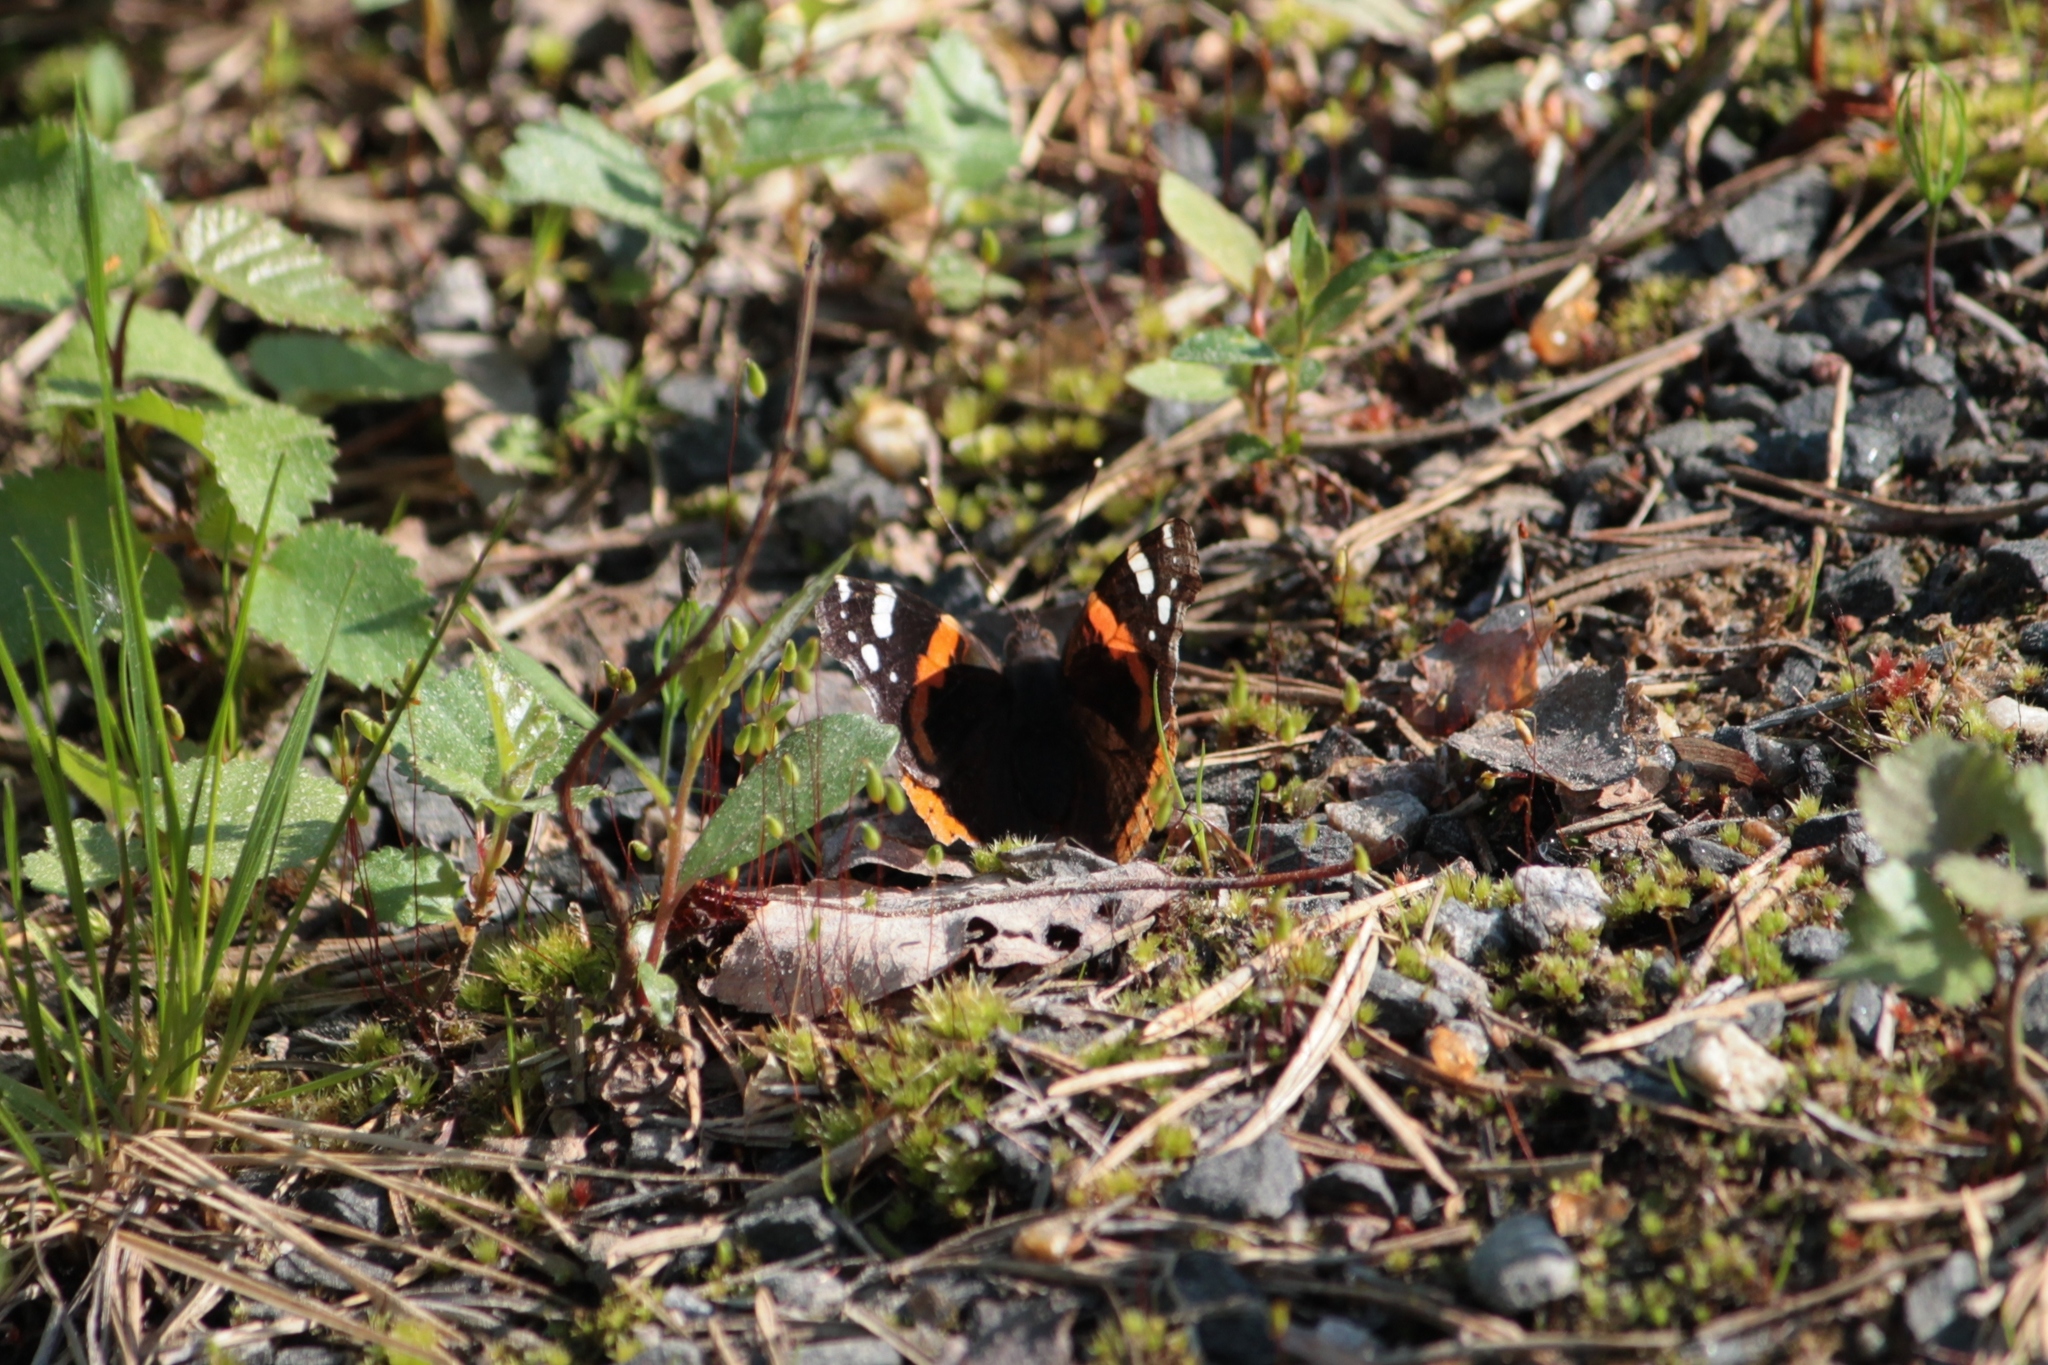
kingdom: Animalia
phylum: Arthropoda
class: Insecta
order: Lepidoptera
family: Nymphalidae
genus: Vanessa
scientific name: Vanessa atalanta
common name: Red admiral
